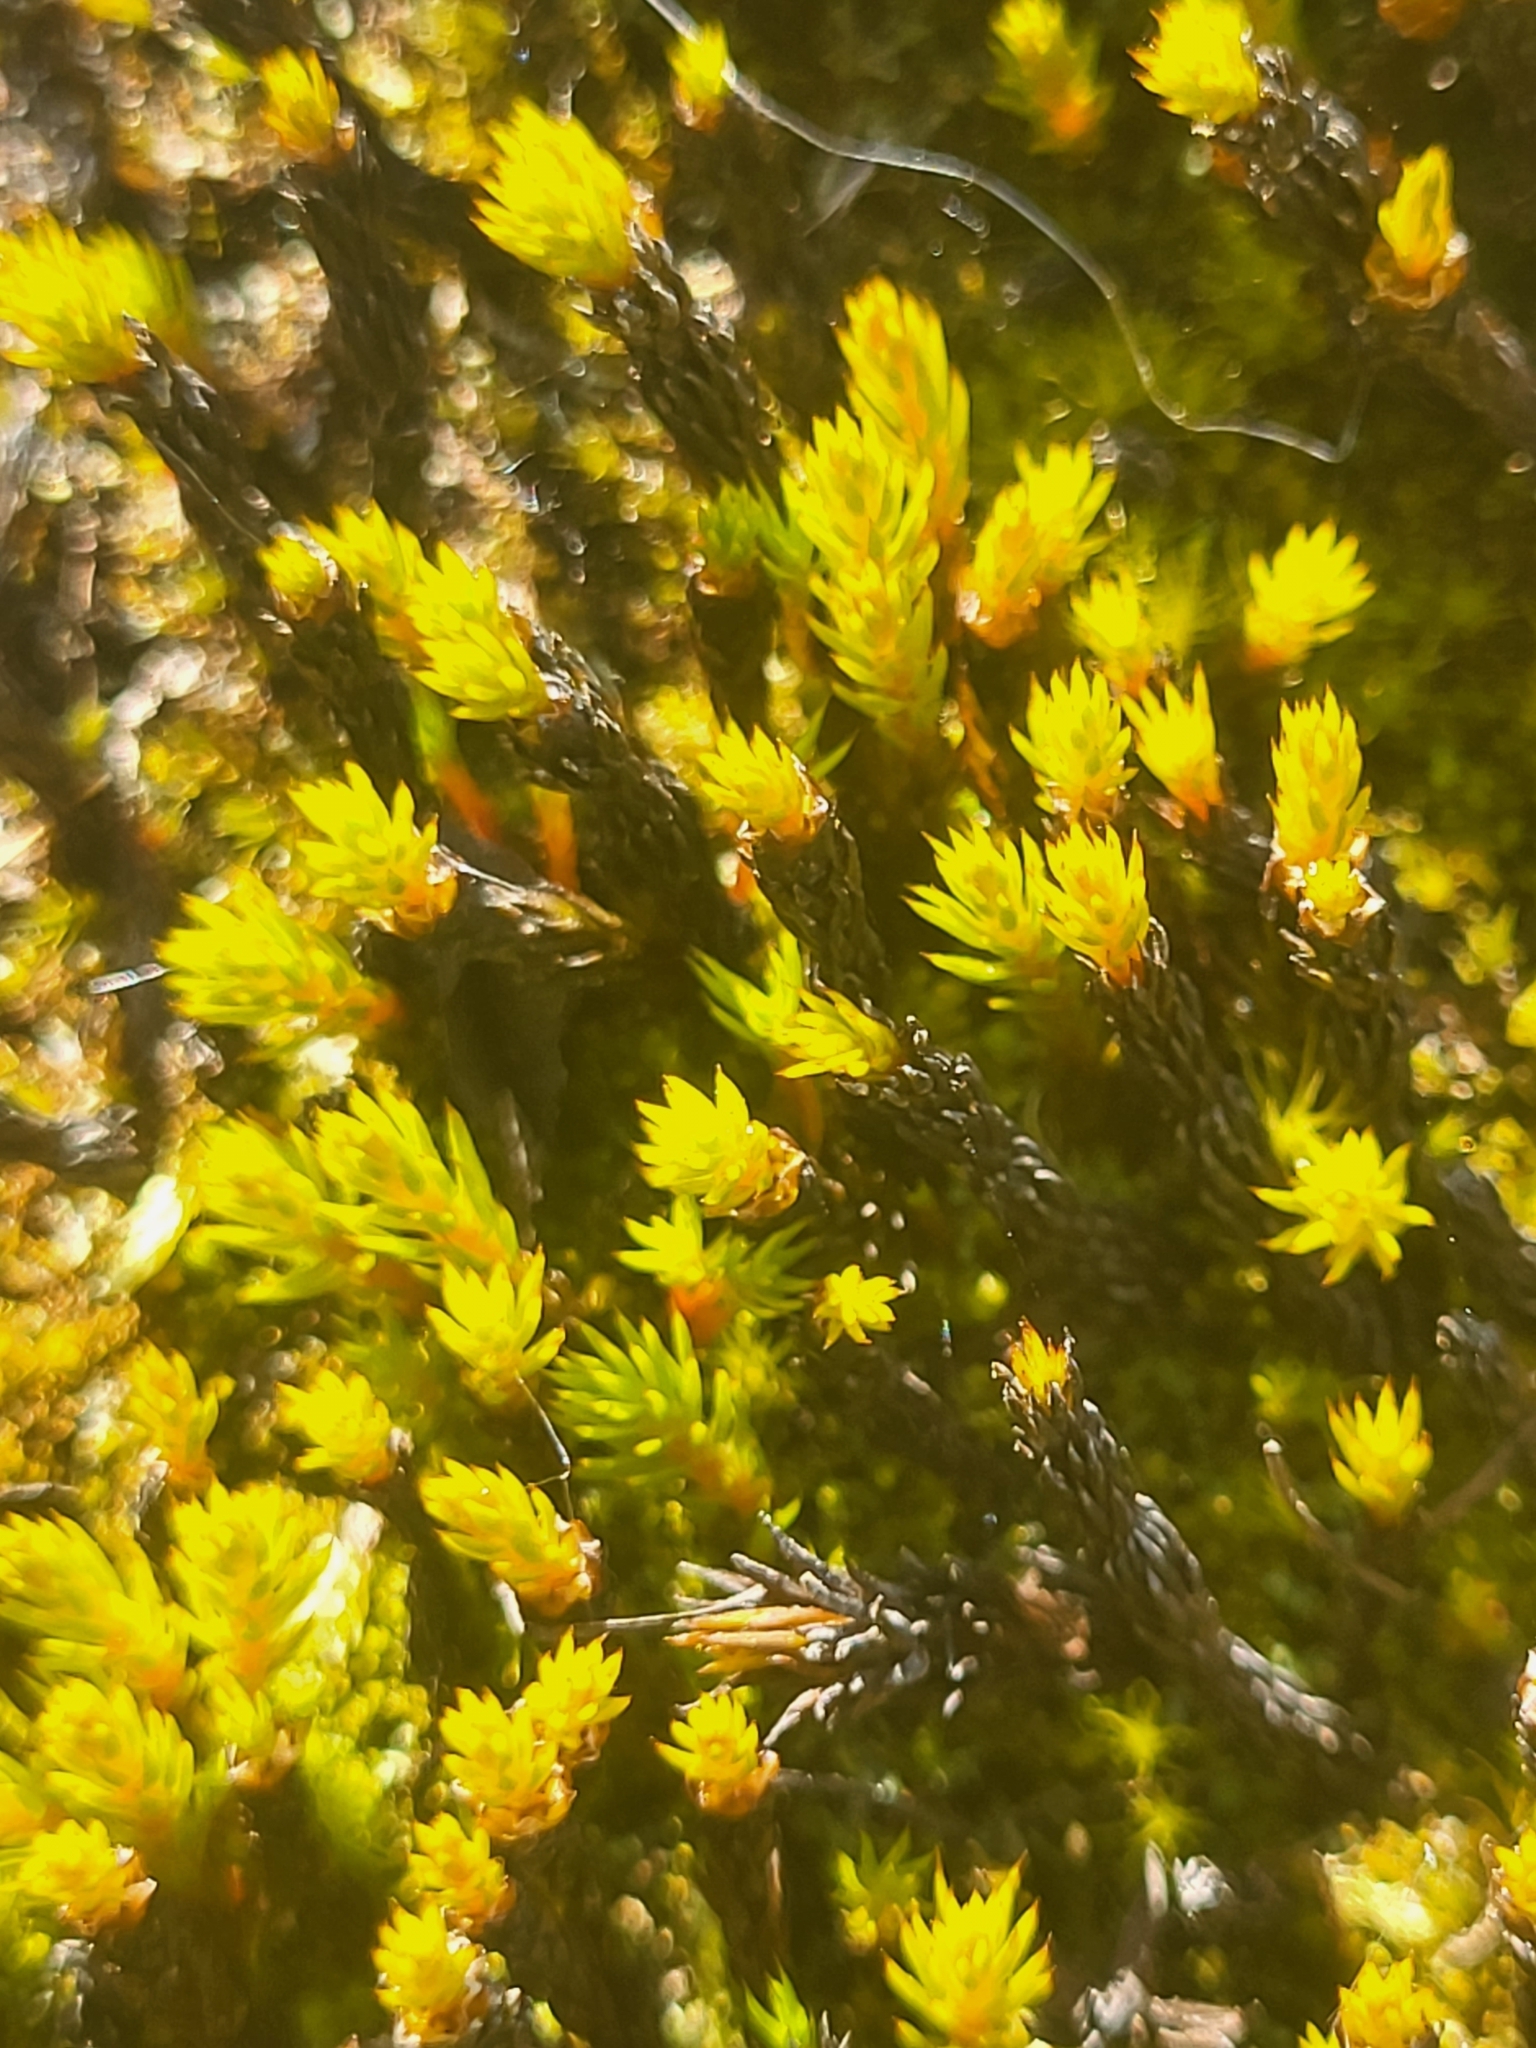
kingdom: Plantae
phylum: Bryophyta
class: Polytrichopsida
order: Polytrichales
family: Polytrichaceae
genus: Polytrichum
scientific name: Polytrichum strictum
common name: Bog haircap moss
